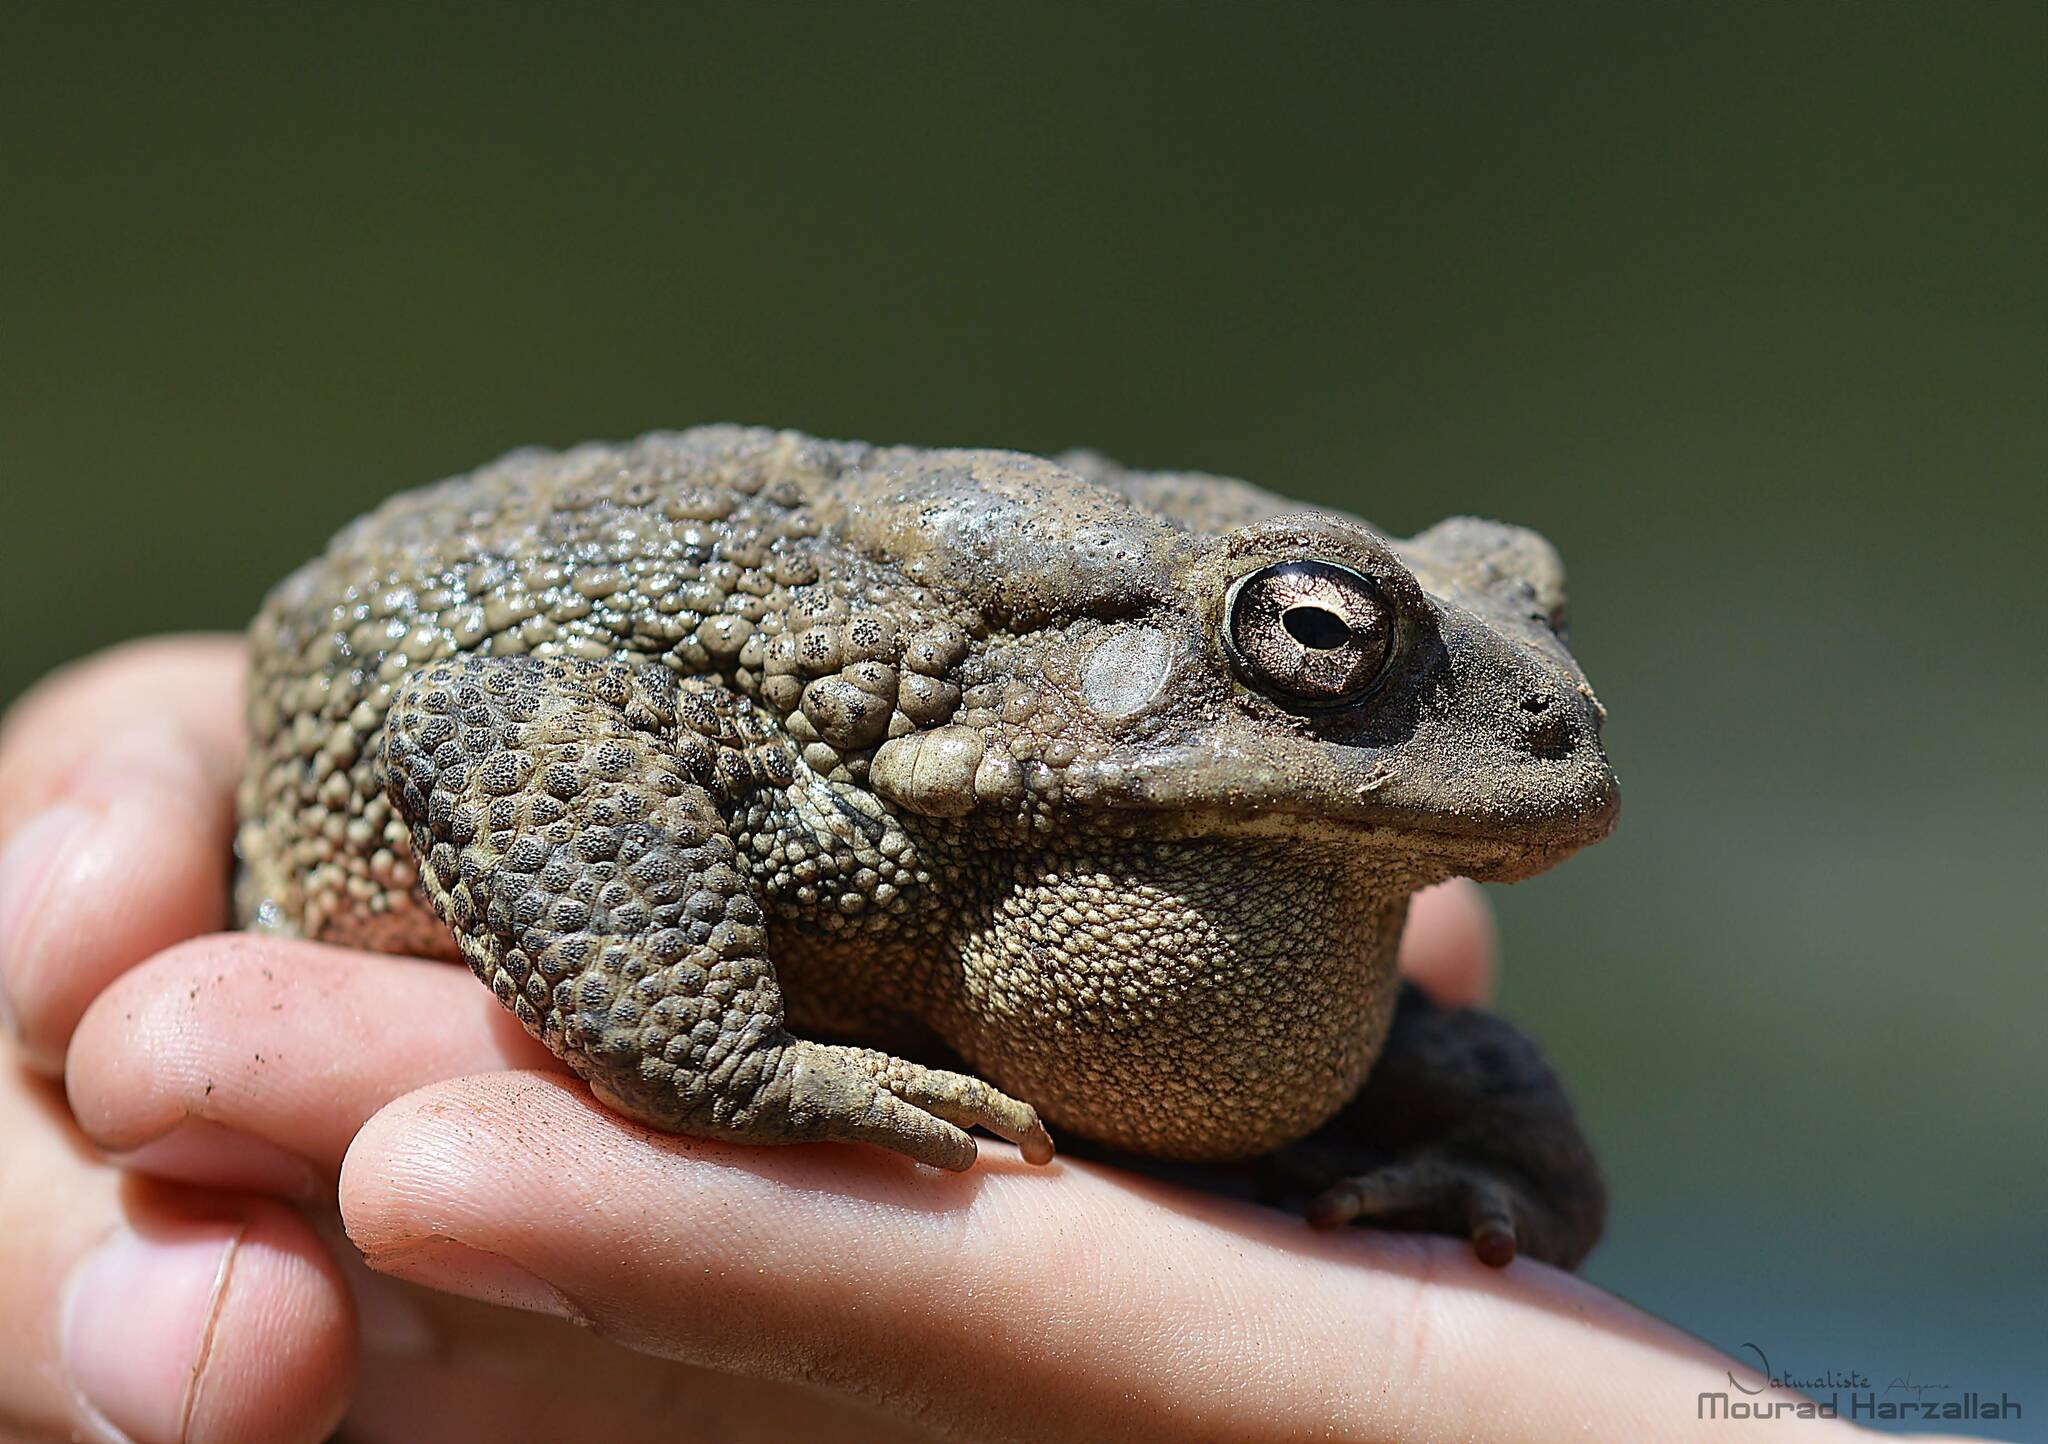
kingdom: Animalia
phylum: Chordata
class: Amphibia
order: Anura
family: Bufonidae
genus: Sclerophrys
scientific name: Sclerophrys mauritanica
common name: Berber toad
